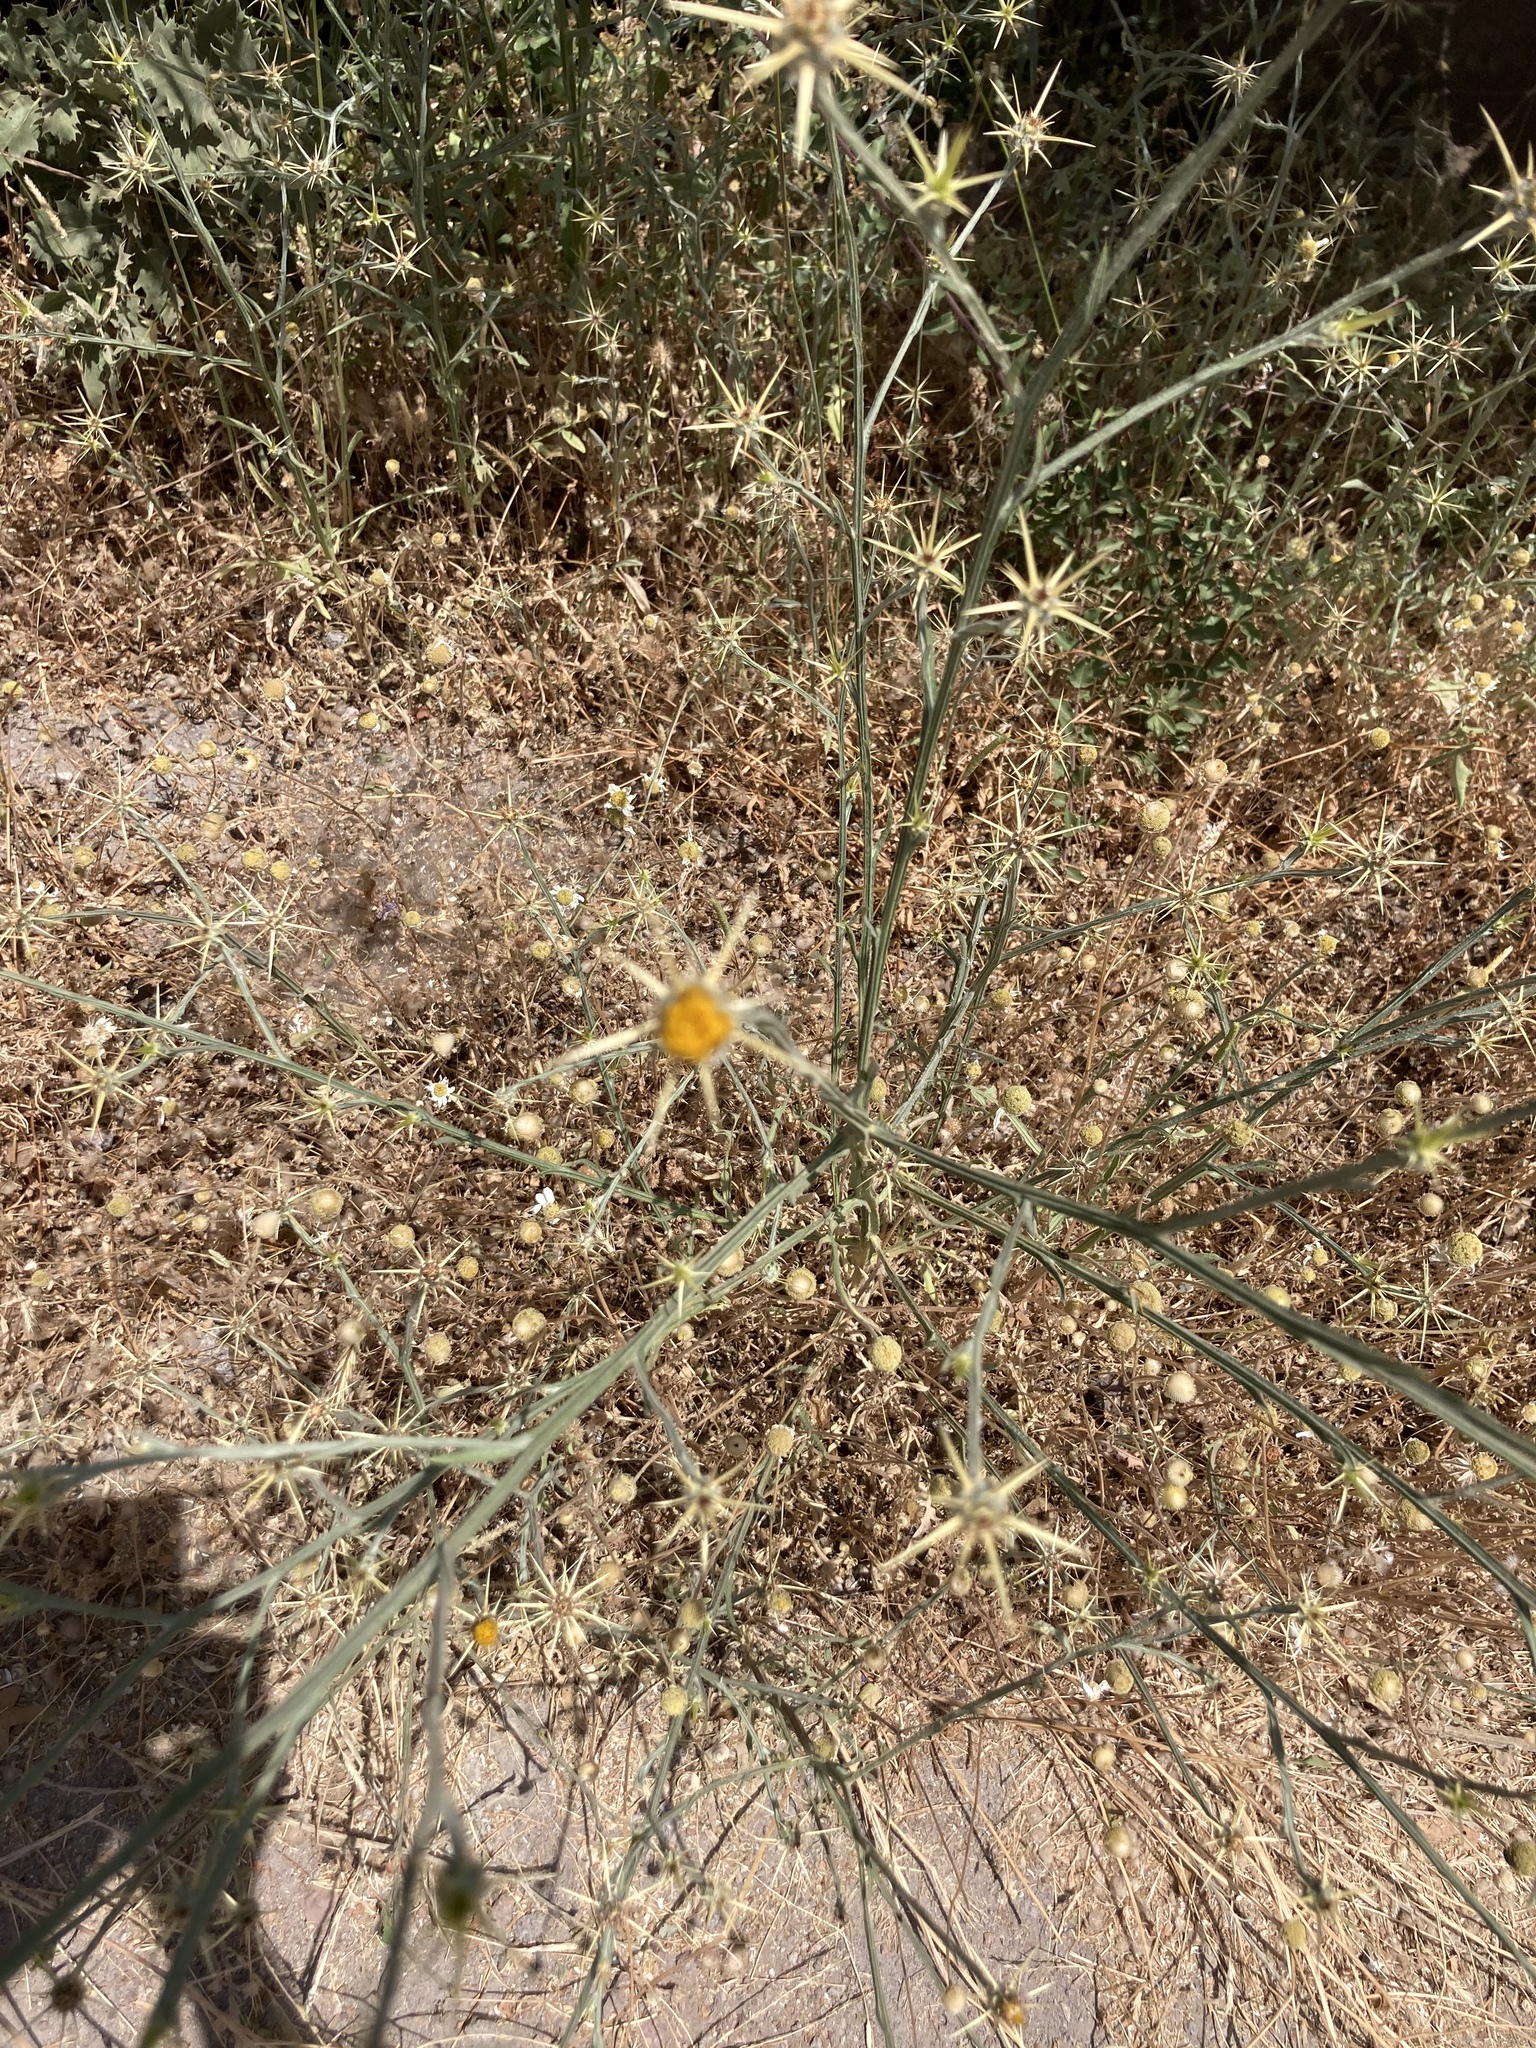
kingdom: Plantae
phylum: Tracheophyta
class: Magnoliopsida
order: Asterales
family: Asteraceae
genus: Centaurea
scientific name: Centaurea solstitialis
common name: Yellow star-thistle
